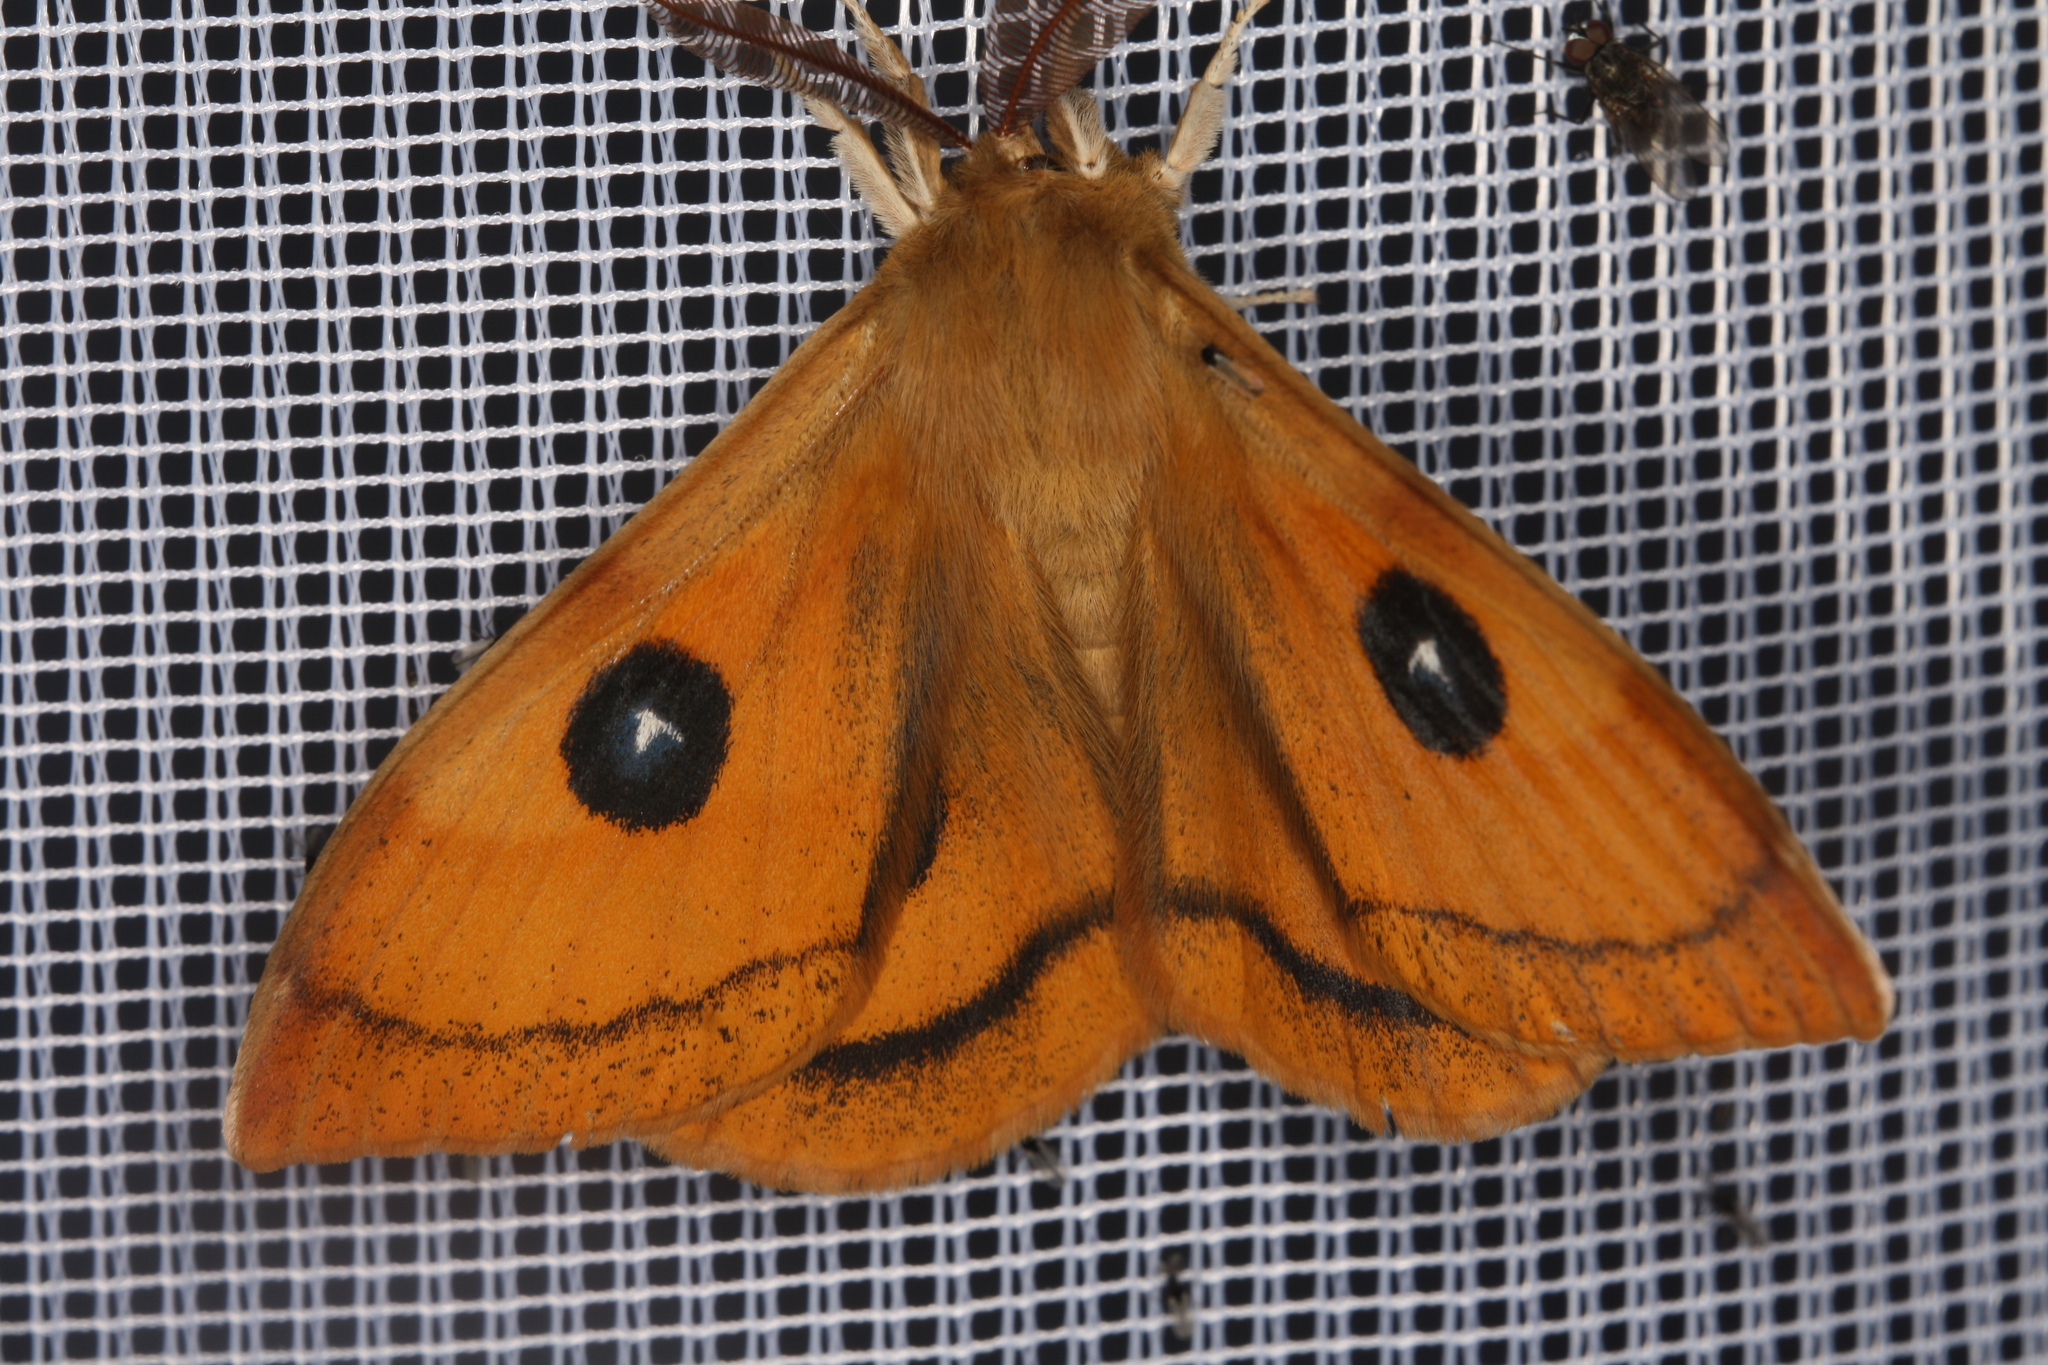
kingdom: Animalia
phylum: Arthropoda
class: Insecta
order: Lepidoptera
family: Saturniidae
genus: Aglia
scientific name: Aglia tau
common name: Tau emperor
